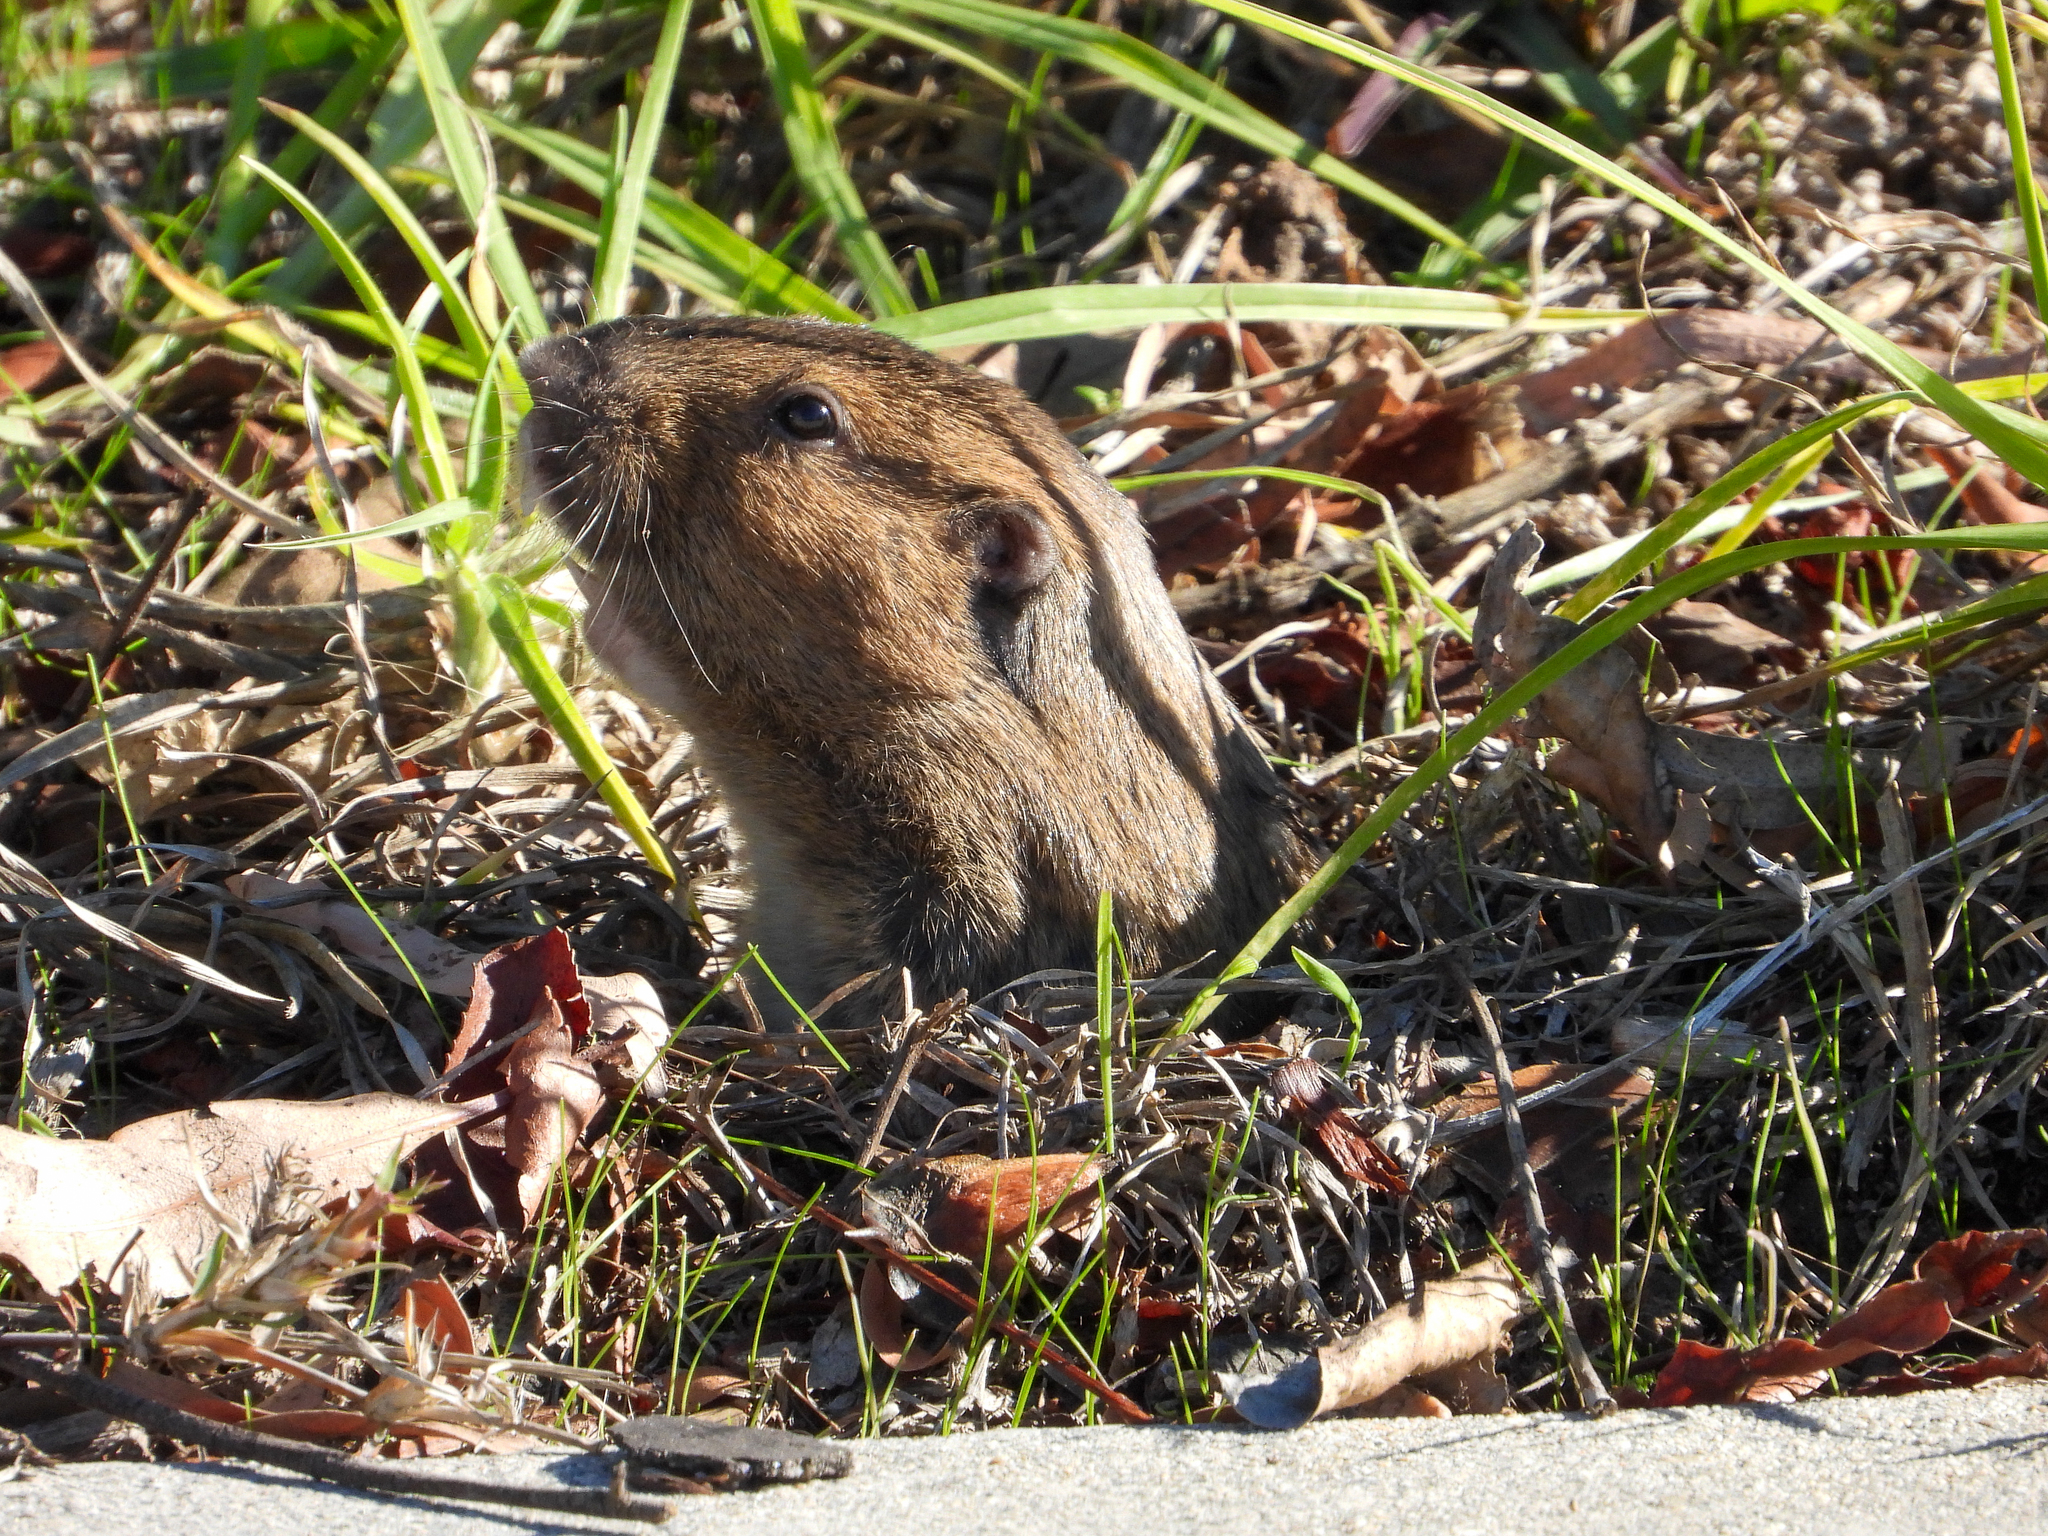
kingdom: Animalia
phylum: Chordata
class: Mammalia
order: Rodentia
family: Geomyidae
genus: Thomomys
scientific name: Thomomys bottae
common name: Botta's pocket gopher
